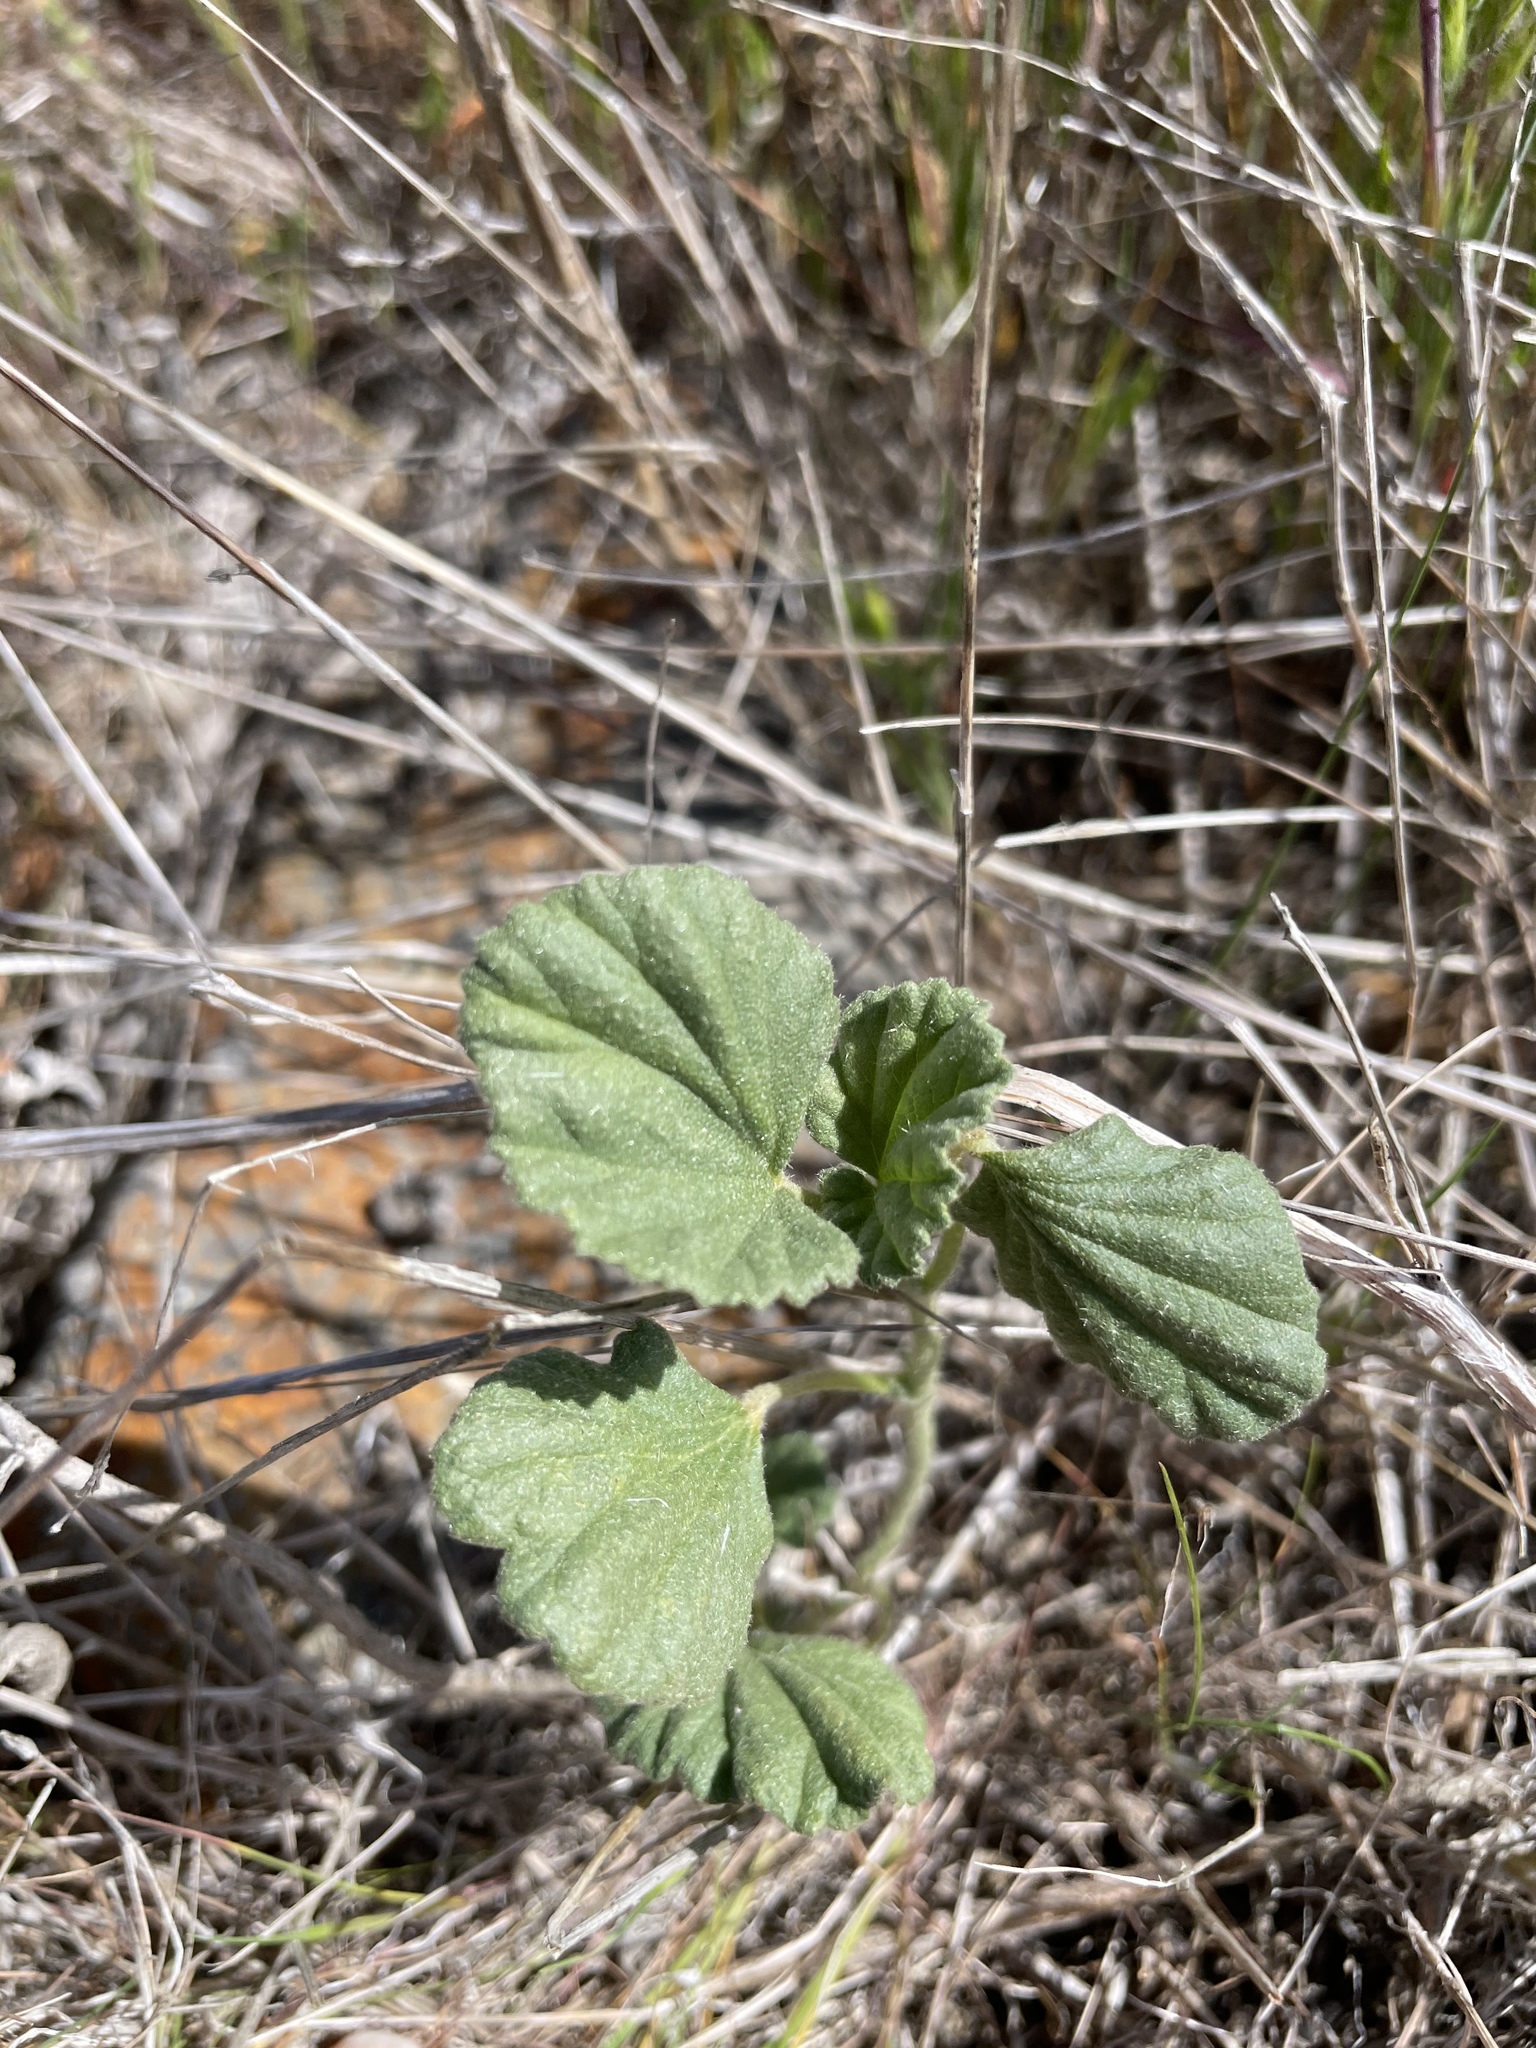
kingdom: Plantae
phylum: Tracheophyta
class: Magnoliopsida
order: Malvales
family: Malvaceae
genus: Malvella
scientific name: Malvella leprosa
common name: Alkali-mallow
